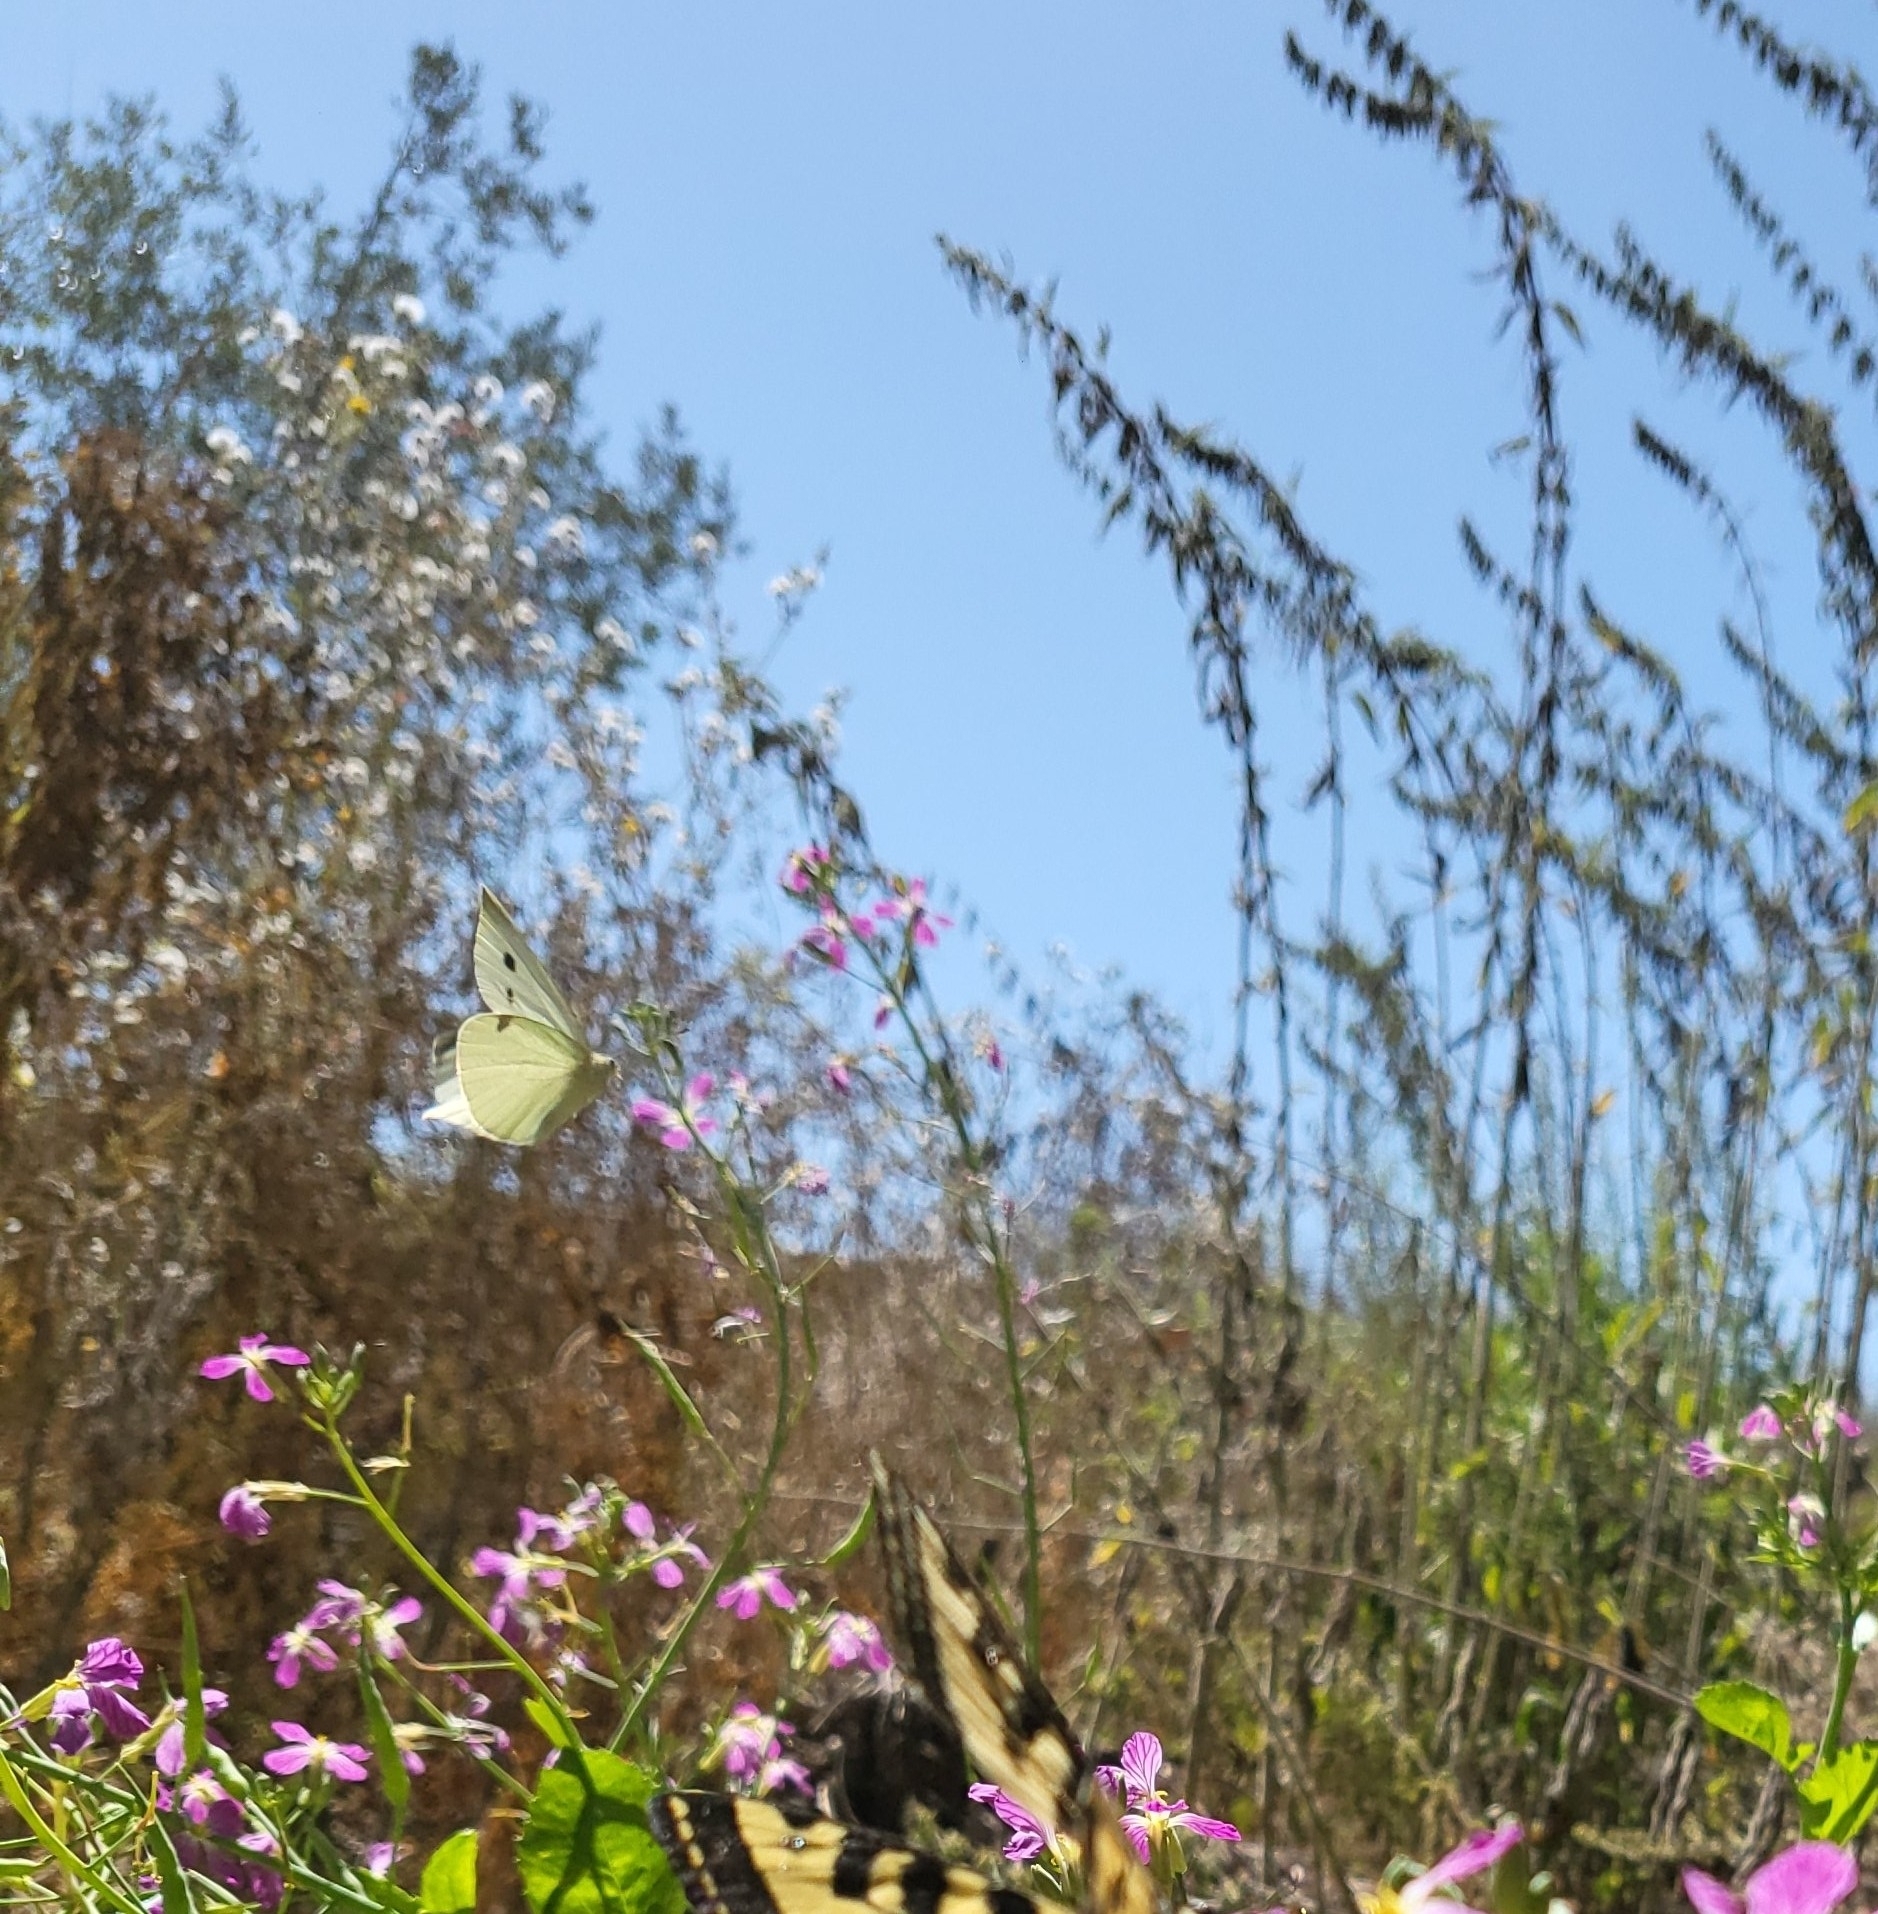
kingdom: Animalia
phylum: Arthropoda
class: Insecta
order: Lepidoptera
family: Pieridae
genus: Pieris
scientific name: Pieris rapae
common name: Small white
